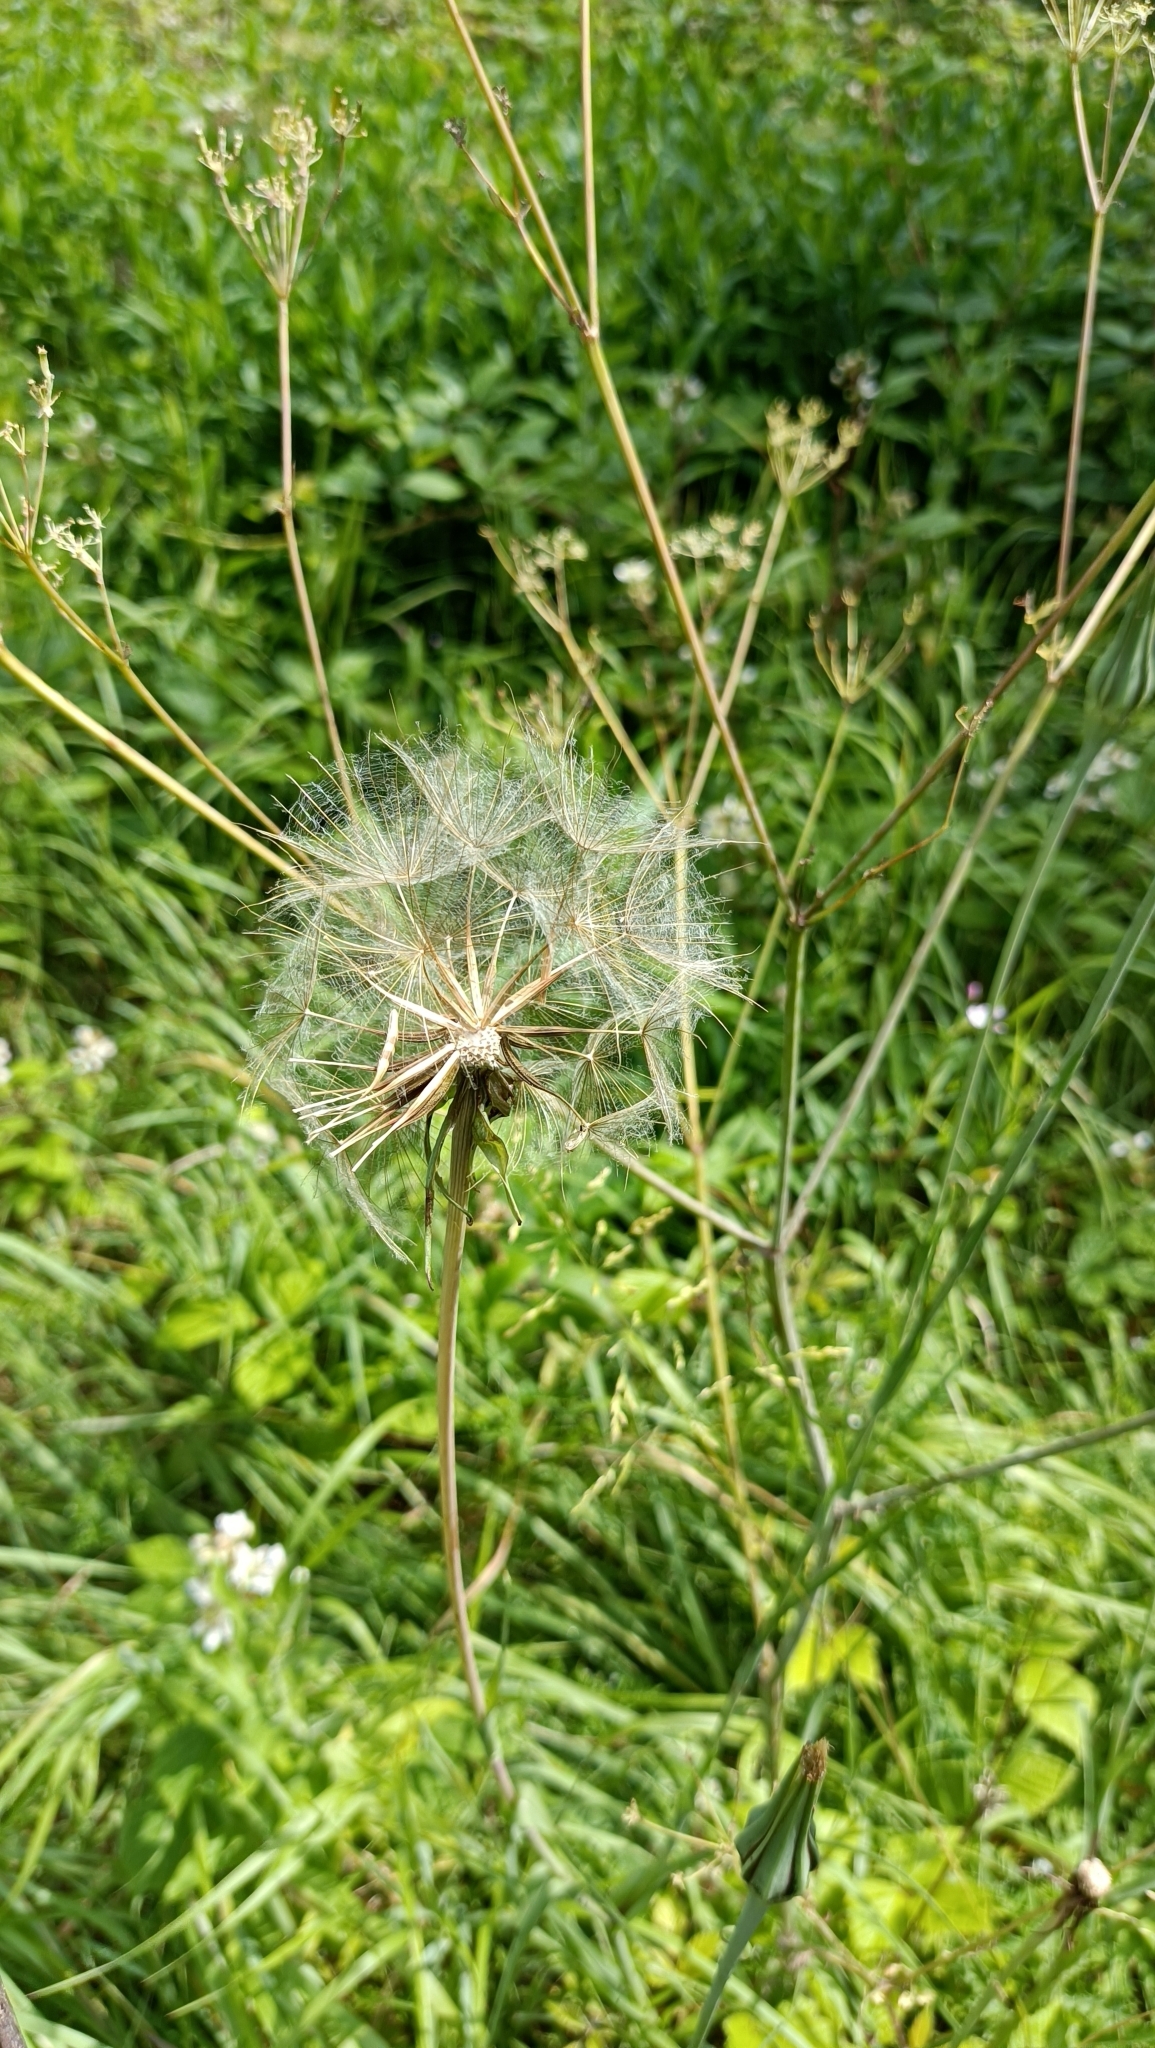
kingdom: Plantae
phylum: Tracheophyta
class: Magnoliopsida
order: Asterales
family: Asteraceae
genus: Tragopogon
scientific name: Tragopogon pratensis
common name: Goat's-beard
